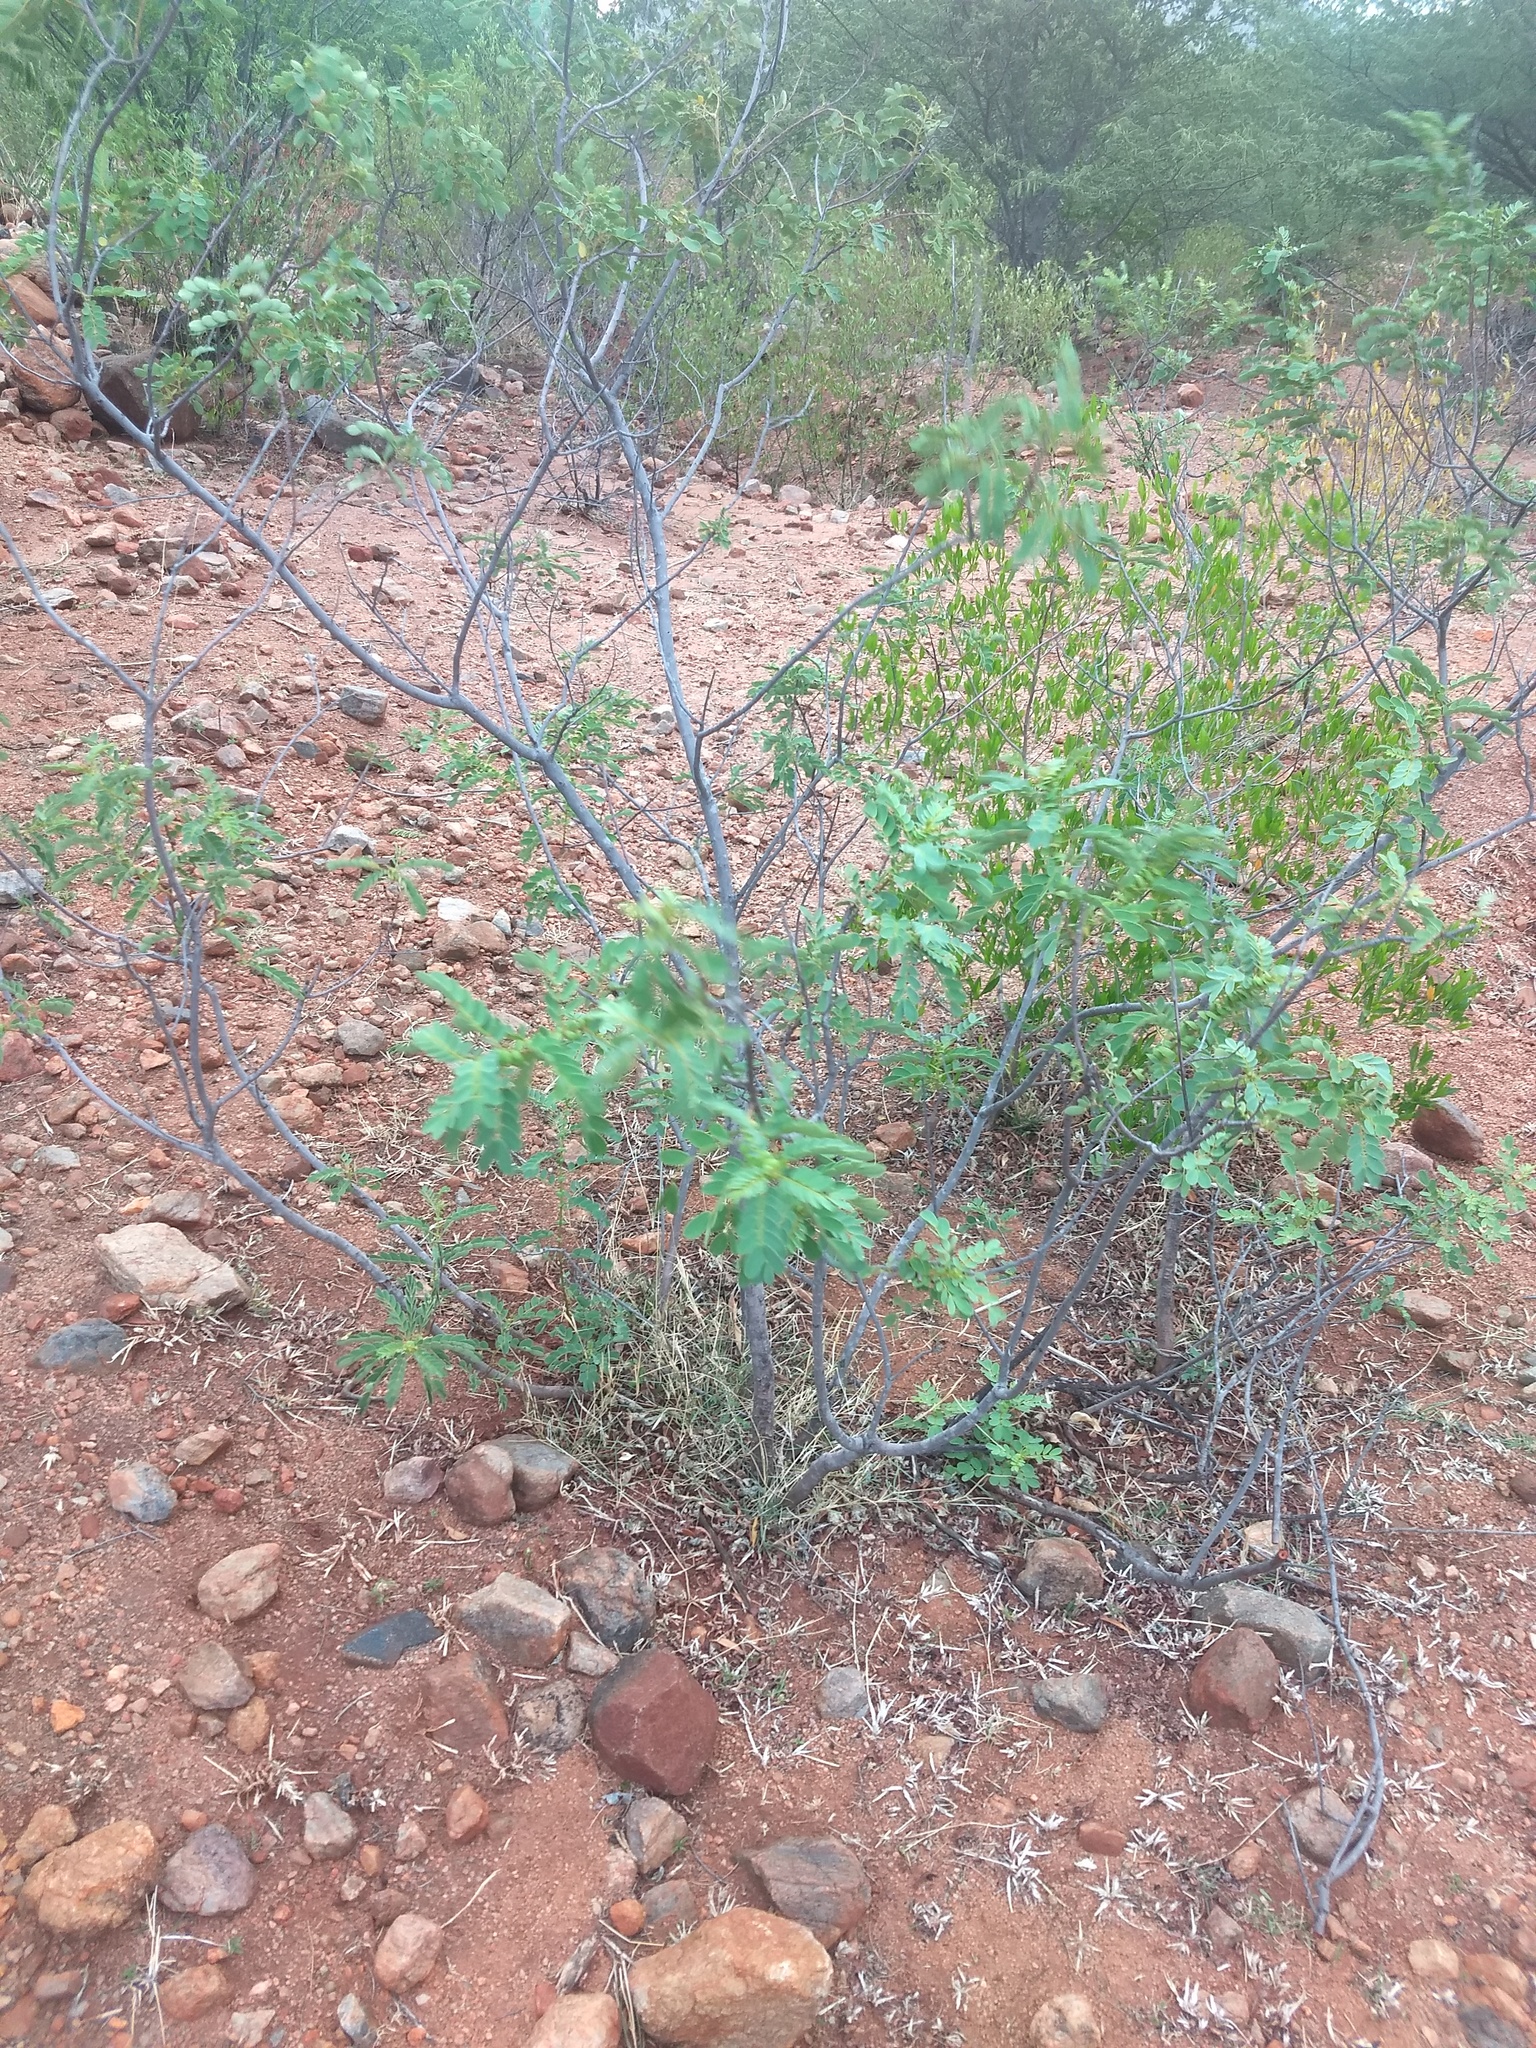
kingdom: Plantae
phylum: Tracheophyta
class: Magnoliopsida
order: Fabales
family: Fabaceae
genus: Senna
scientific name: Senna auriculata
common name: Tanner's cassia
